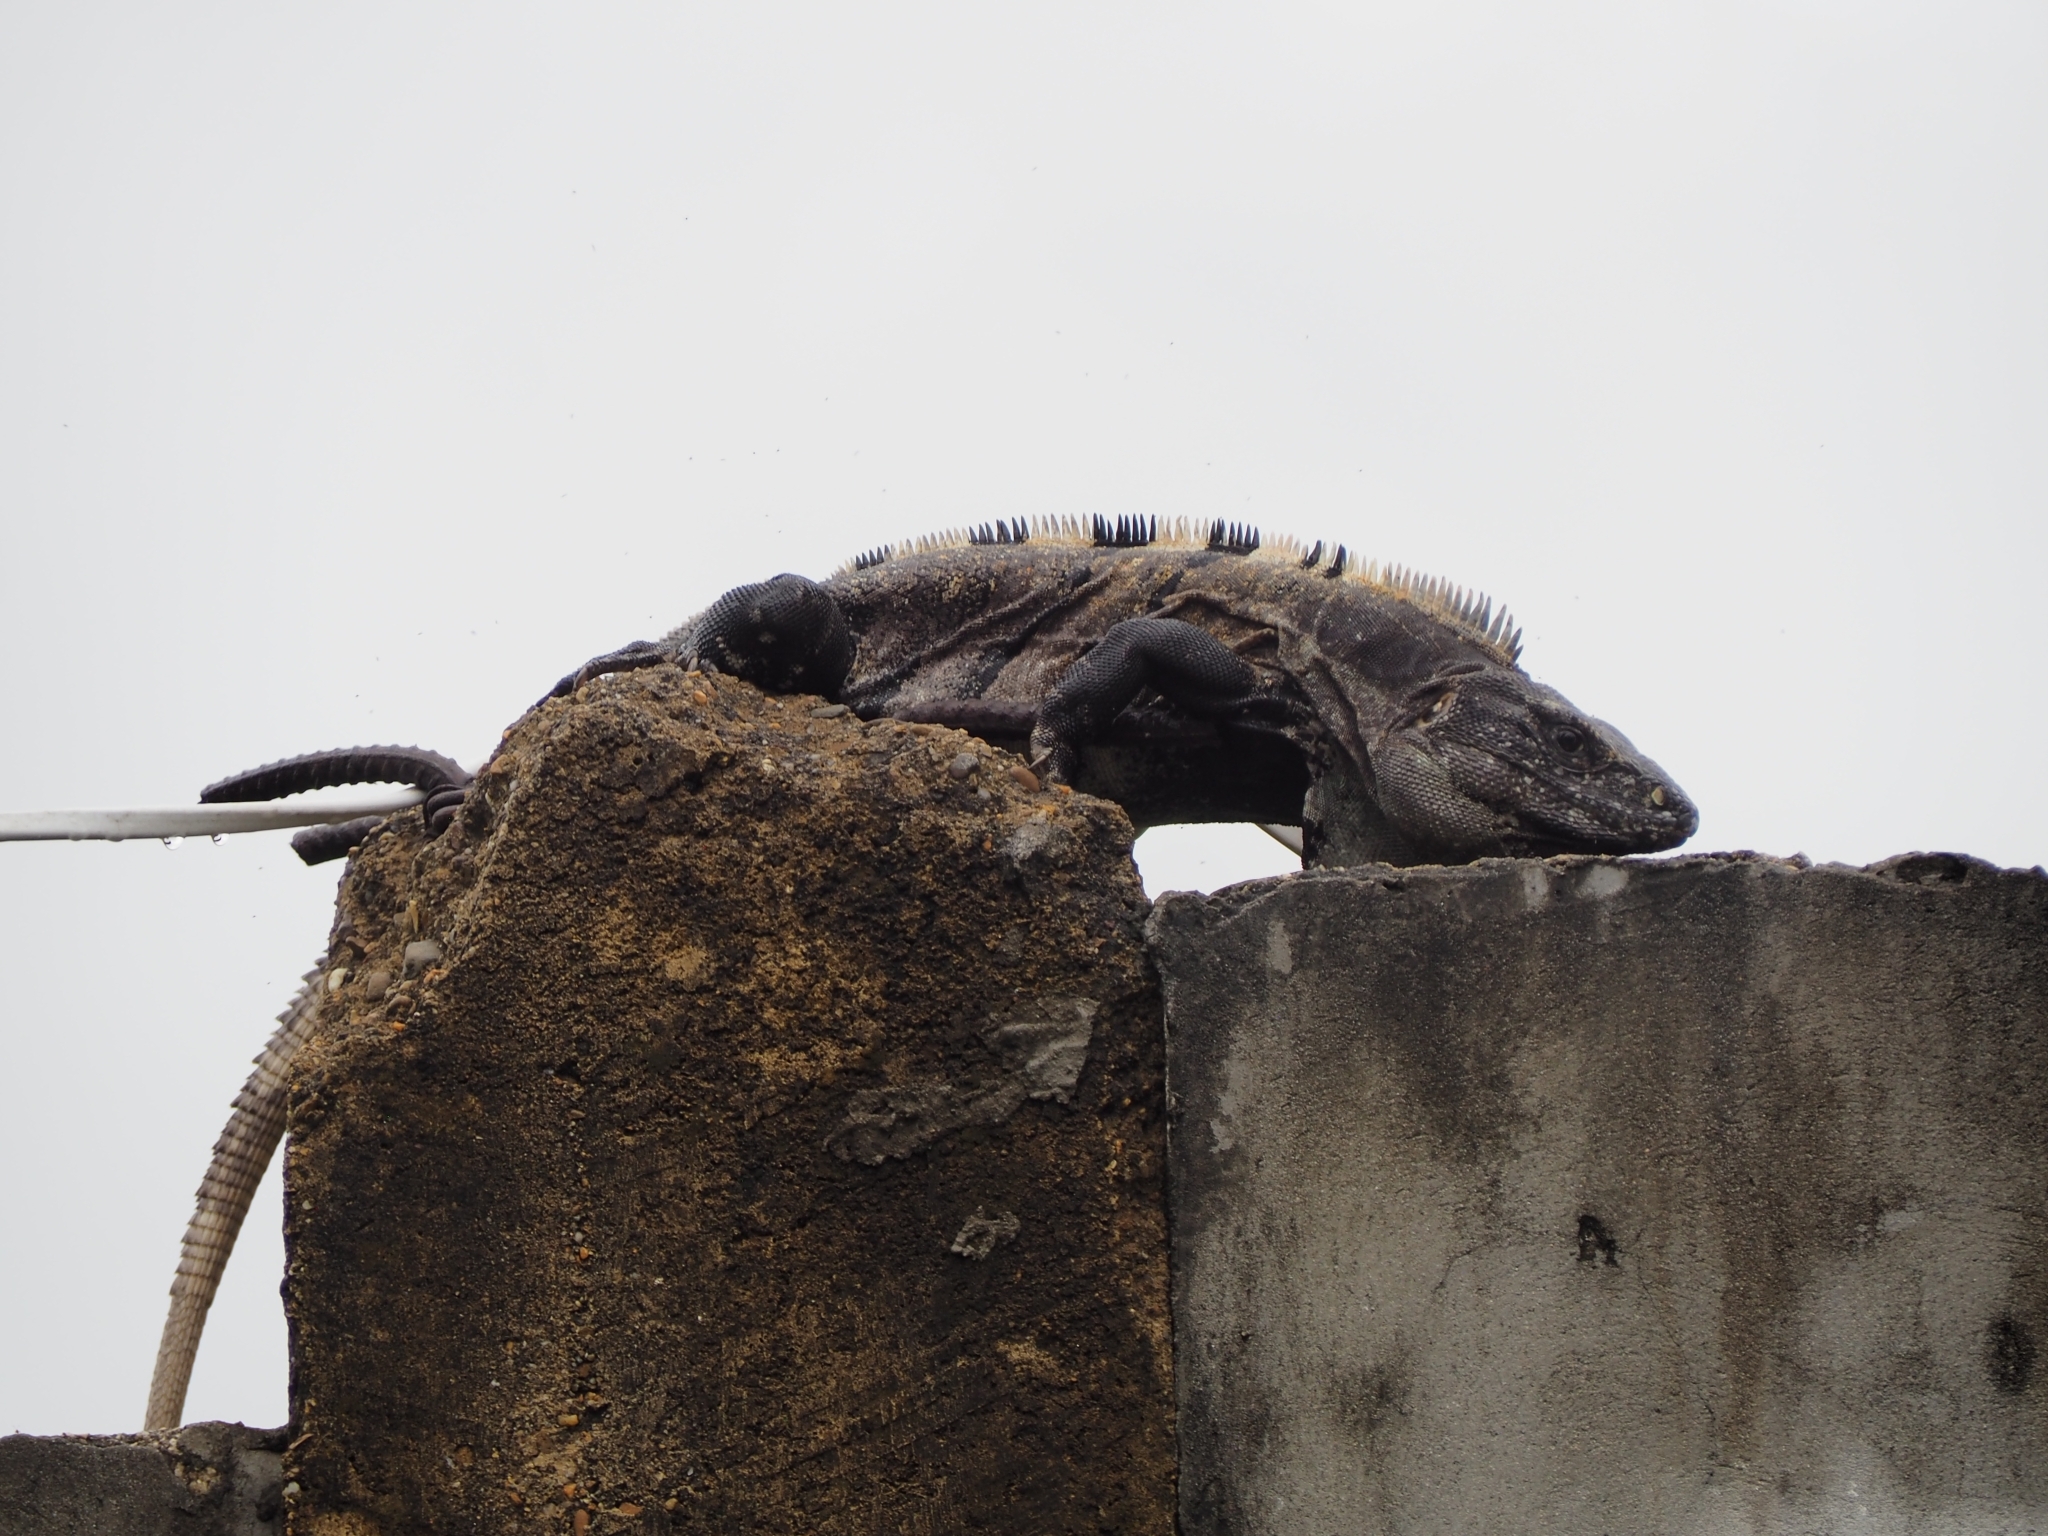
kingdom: Animalia
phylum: Chordata
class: Squamata
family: Iguanidae
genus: Ctenosaura
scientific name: Ctenosaura similis
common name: Black spiny-tailed iguana
